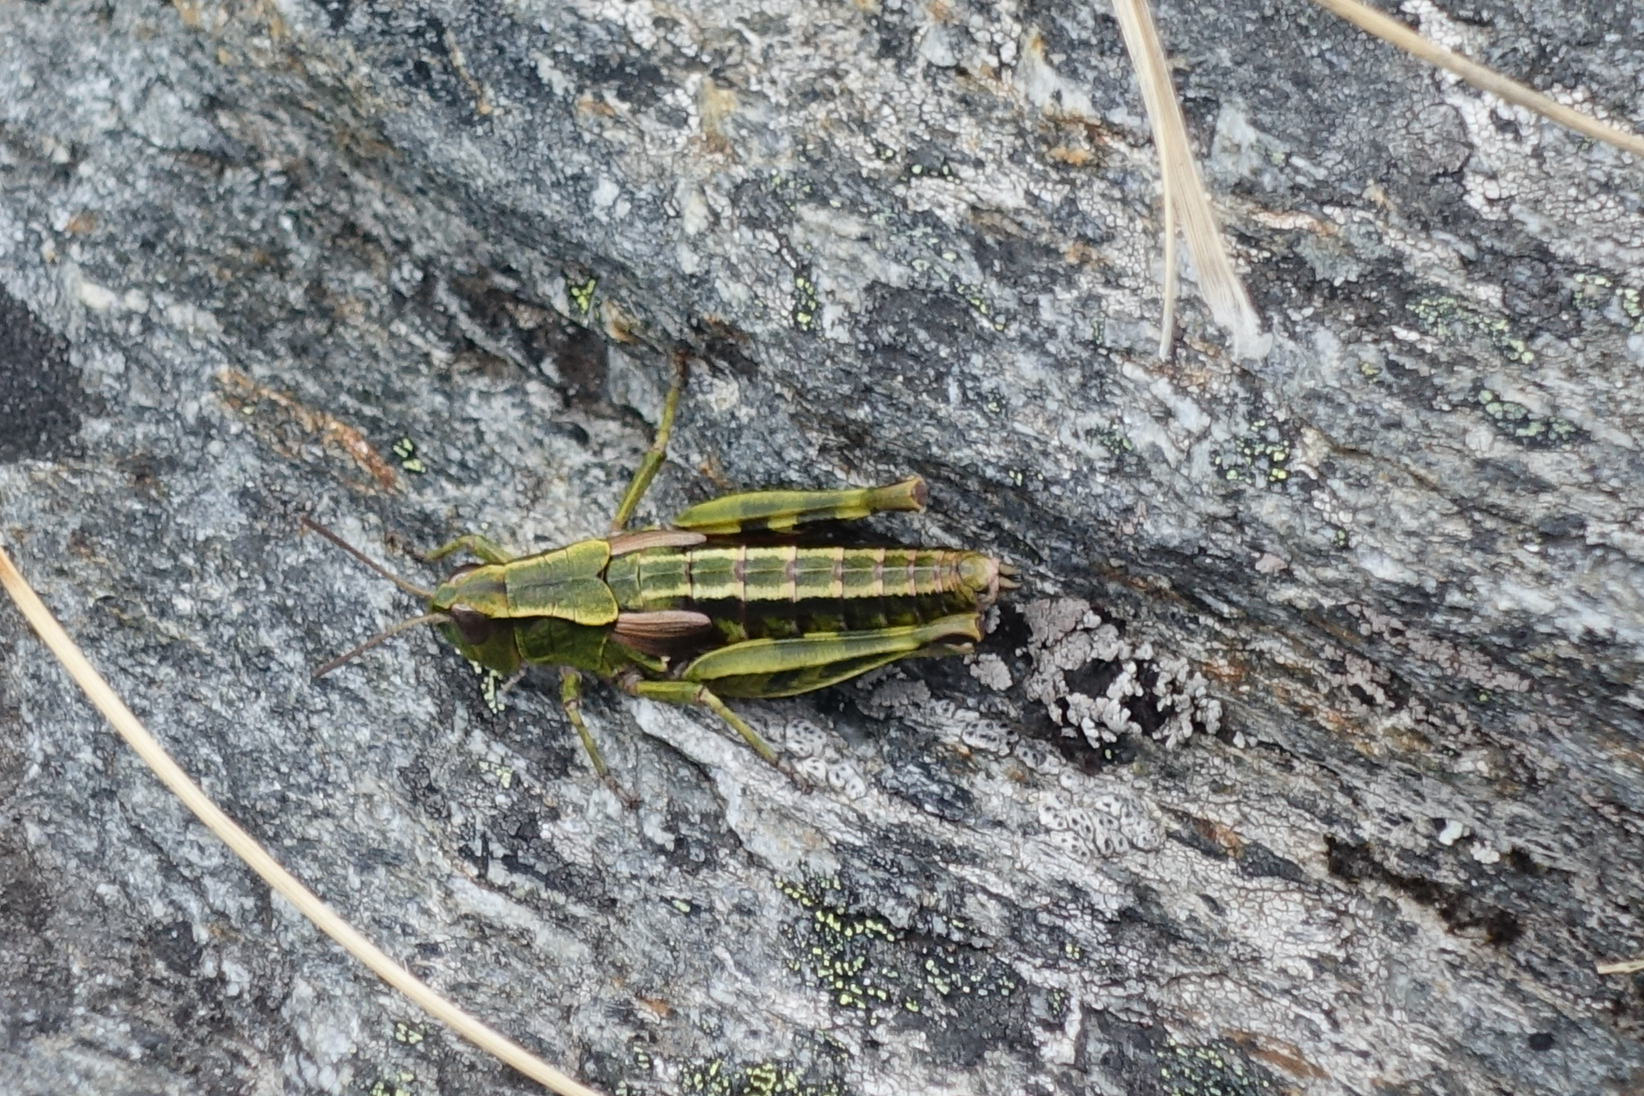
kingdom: Animalia
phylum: Arthropoda
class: Insecta
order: Orthoptera
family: Acrididae
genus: Sigaus
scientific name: Sigaus australis
